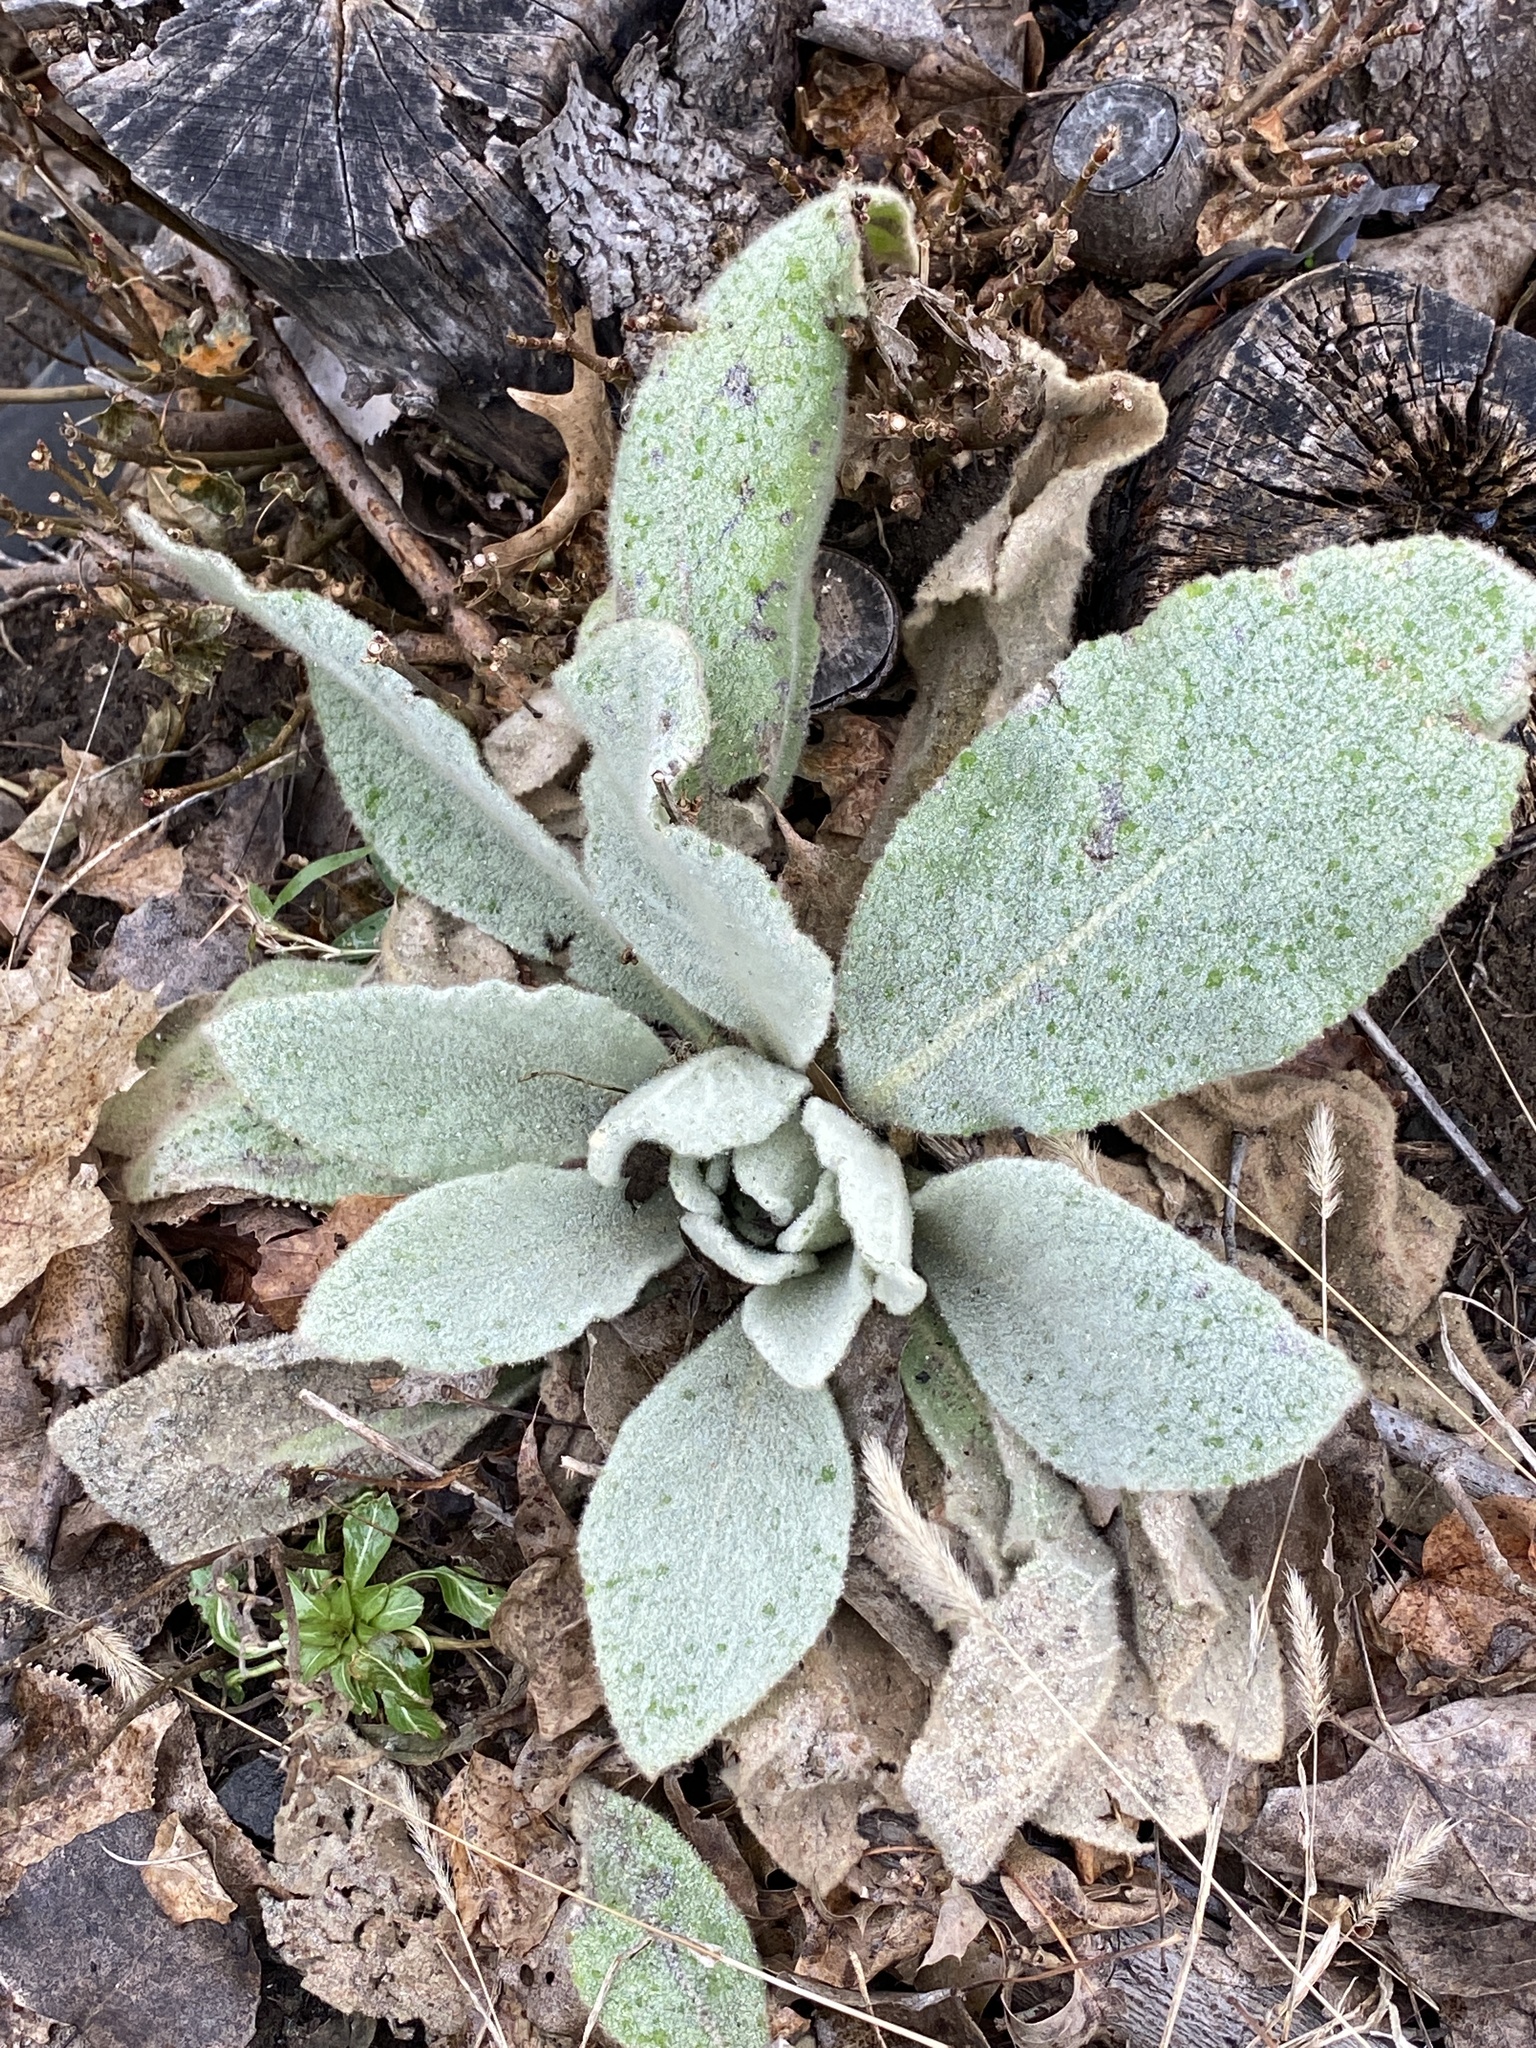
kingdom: Plantae
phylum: Tracheophyta
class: Magnoliopsida
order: Lamiales
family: Scrophulariaceae
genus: Verbascum
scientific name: Verbascum thapsus
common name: Common mullein
